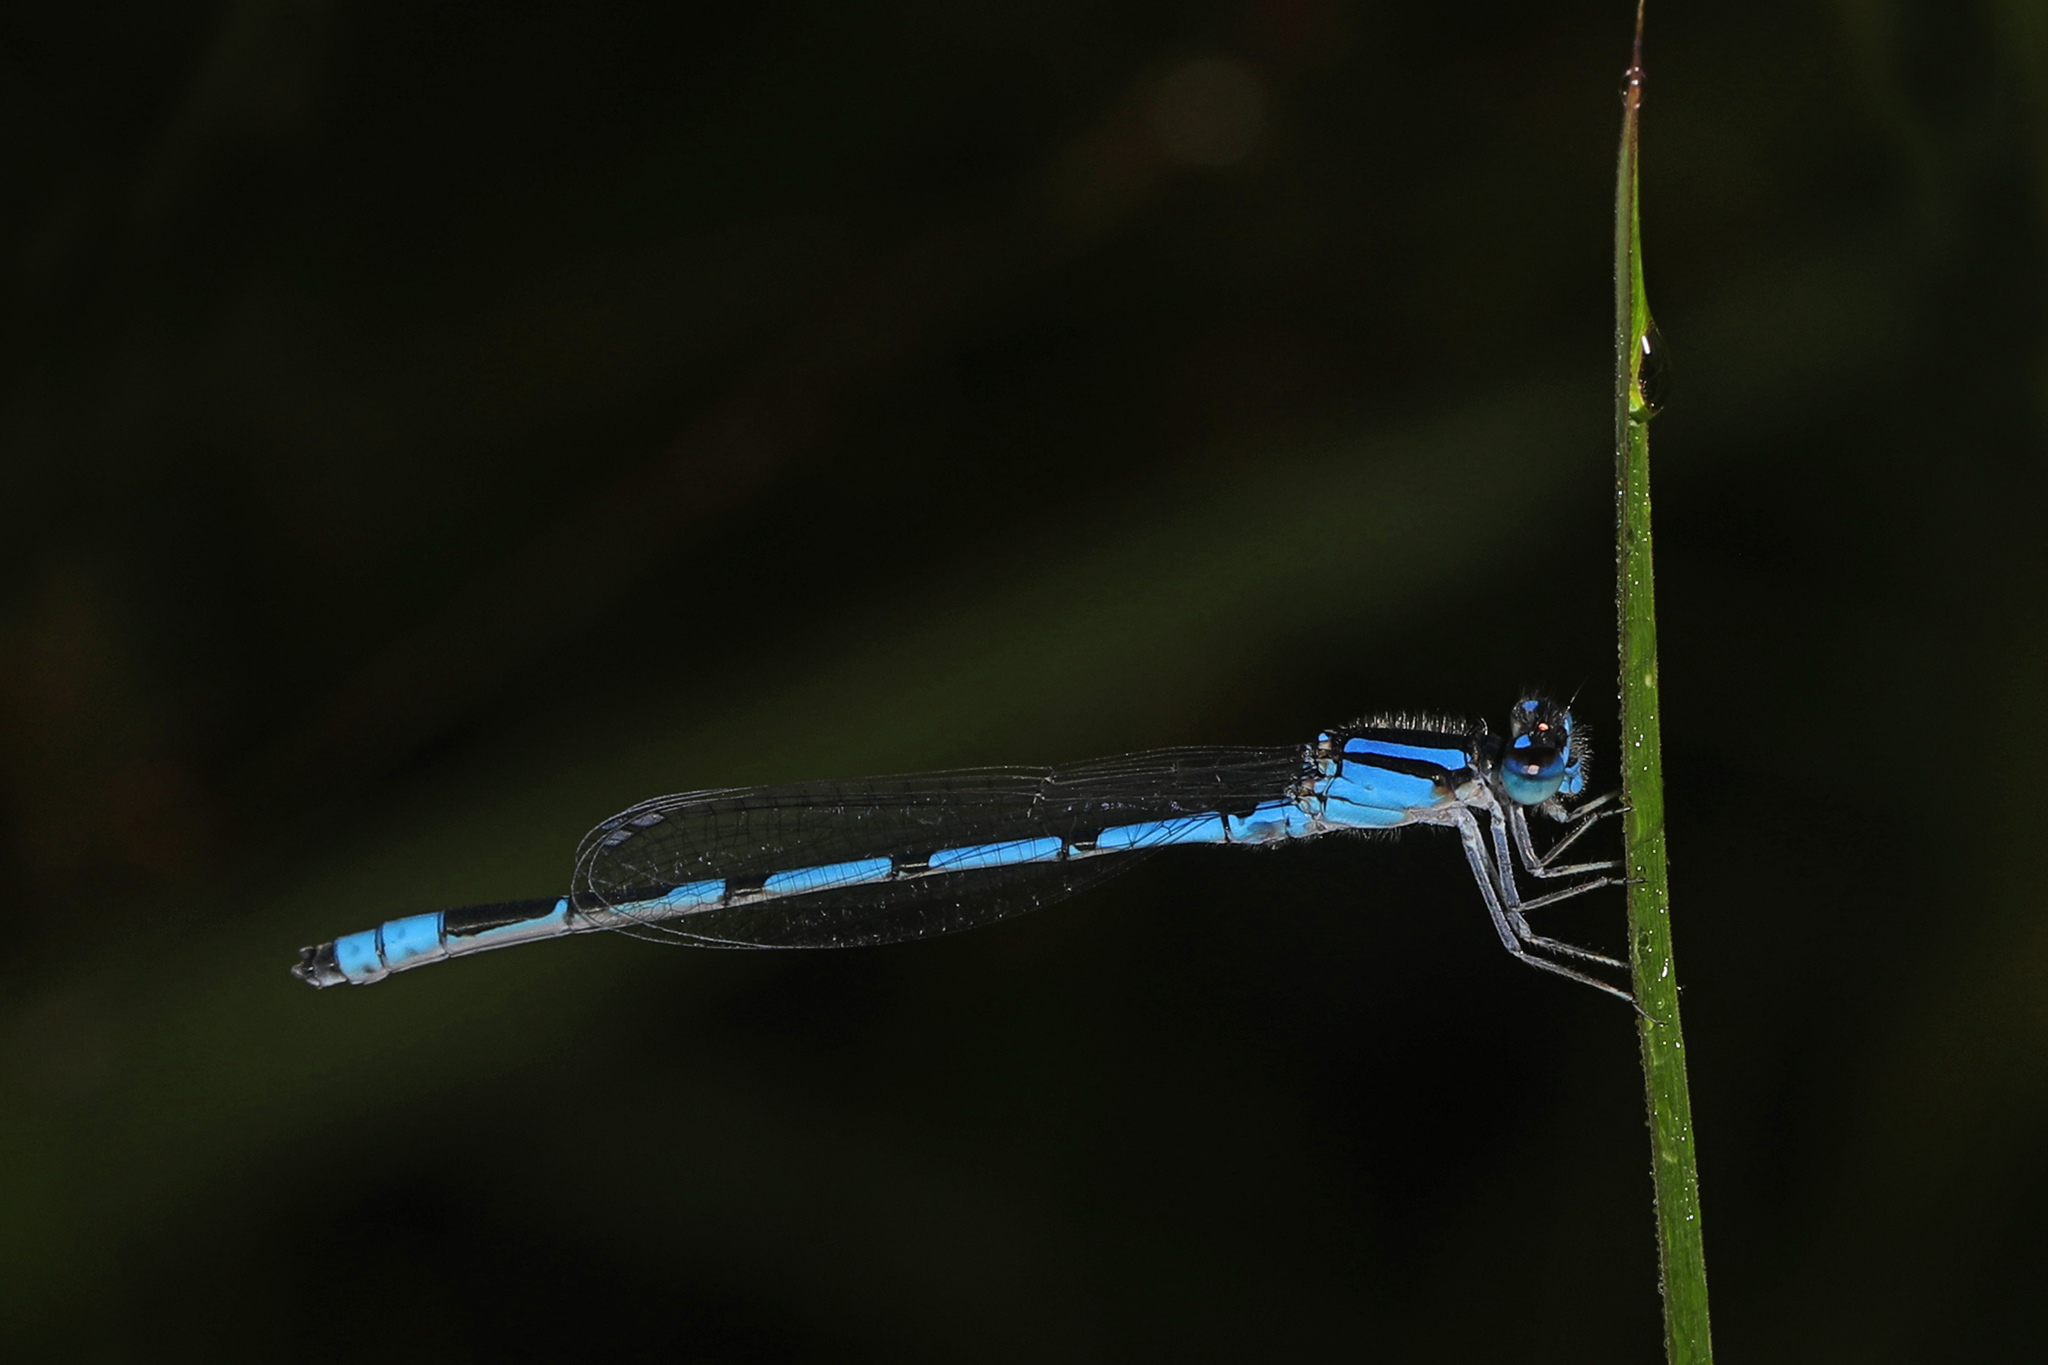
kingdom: Animalia
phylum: Arthropoda
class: Insecta
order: Odonata
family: Coenagrionidae
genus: Enallagma
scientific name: Enallagma civile
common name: Damselfly
